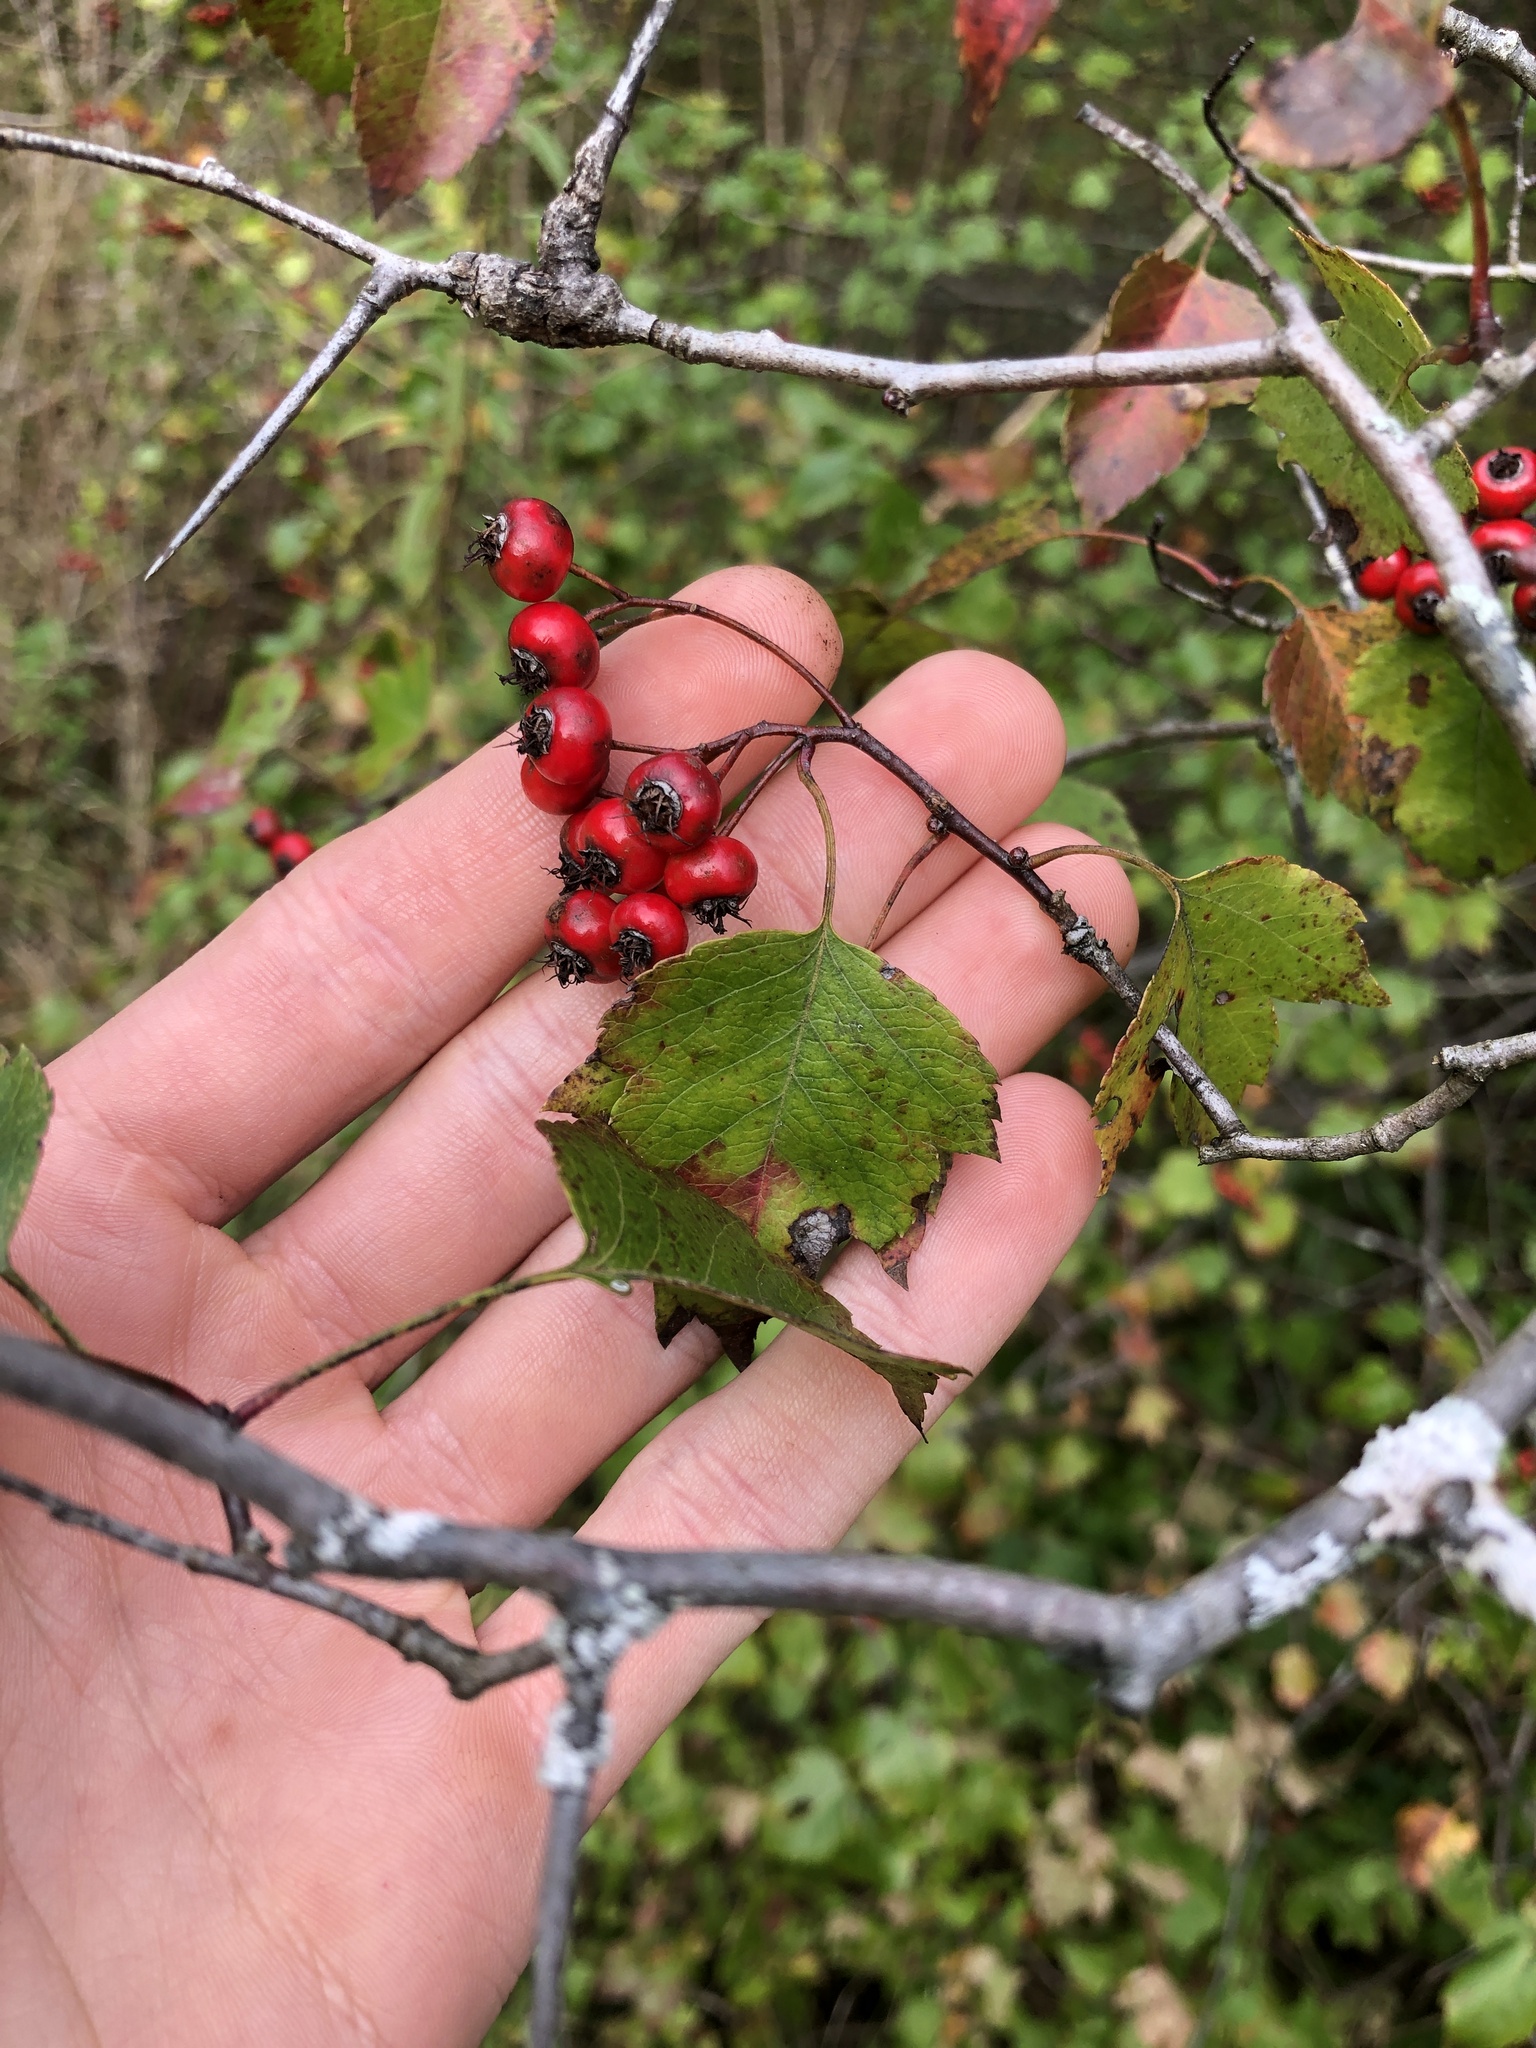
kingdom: Plantae
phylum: Tracheophyta
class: Magnoliopsida
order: Rosales
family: Rosaceae
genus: Crataegus
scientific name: Crataegus phaenopyrum
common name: Washington hawthorn
